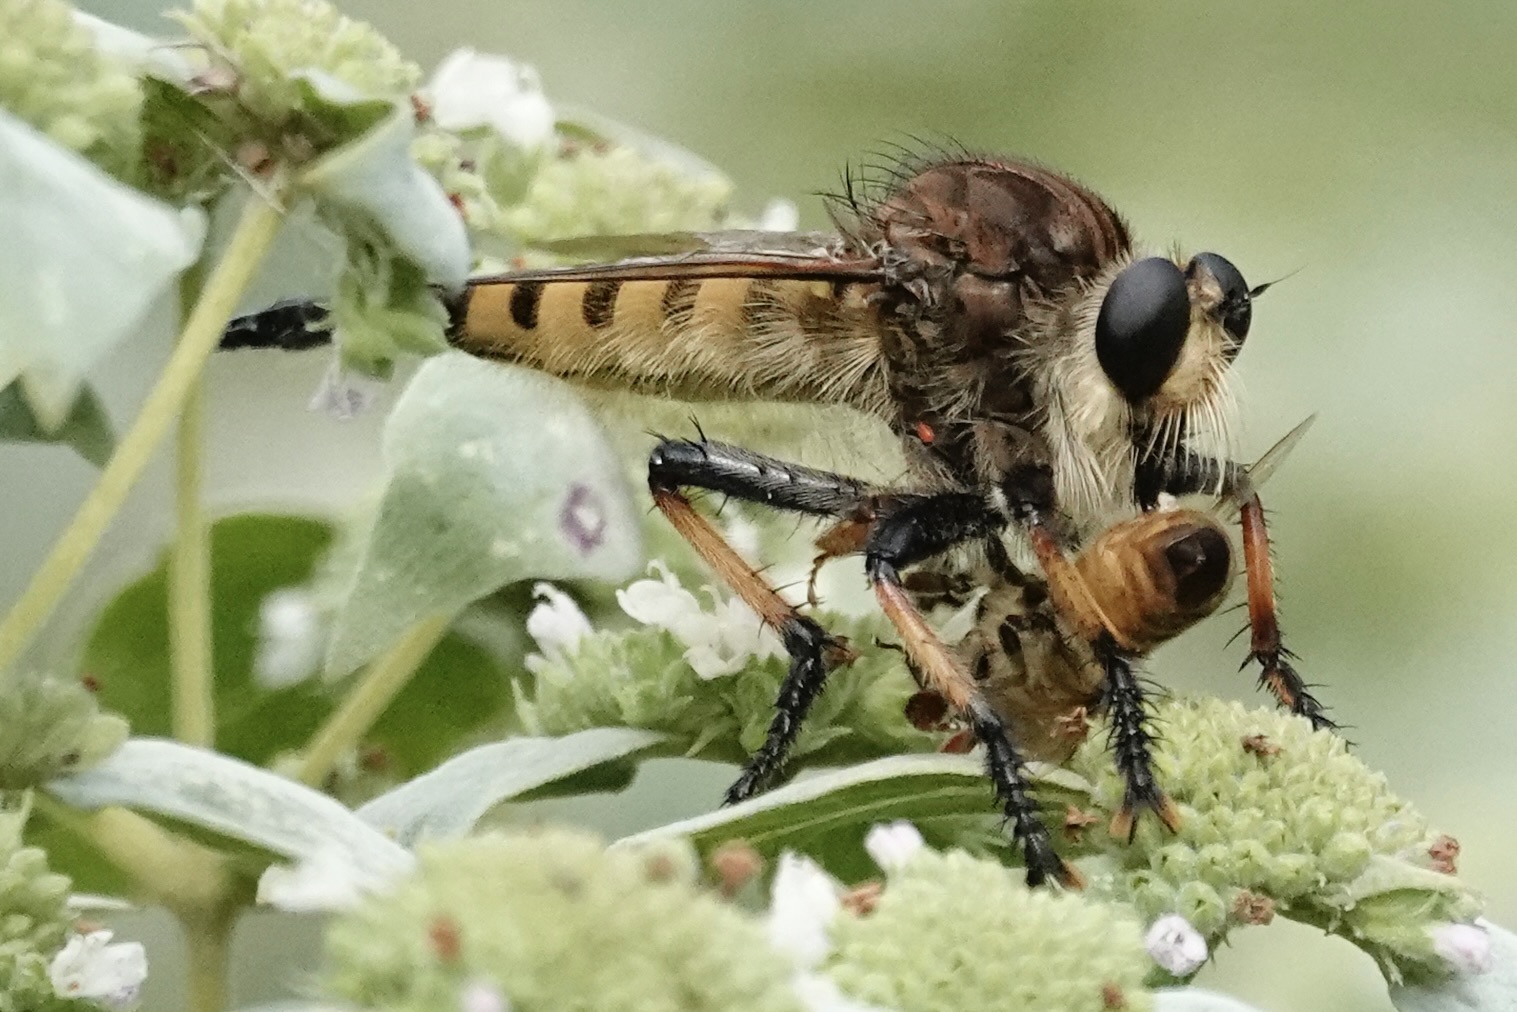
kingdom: Animalia
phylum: Arthropoda
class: Insecta
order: Diptera
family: Asilidae
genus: Promachus
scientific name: Promachus rufipes
